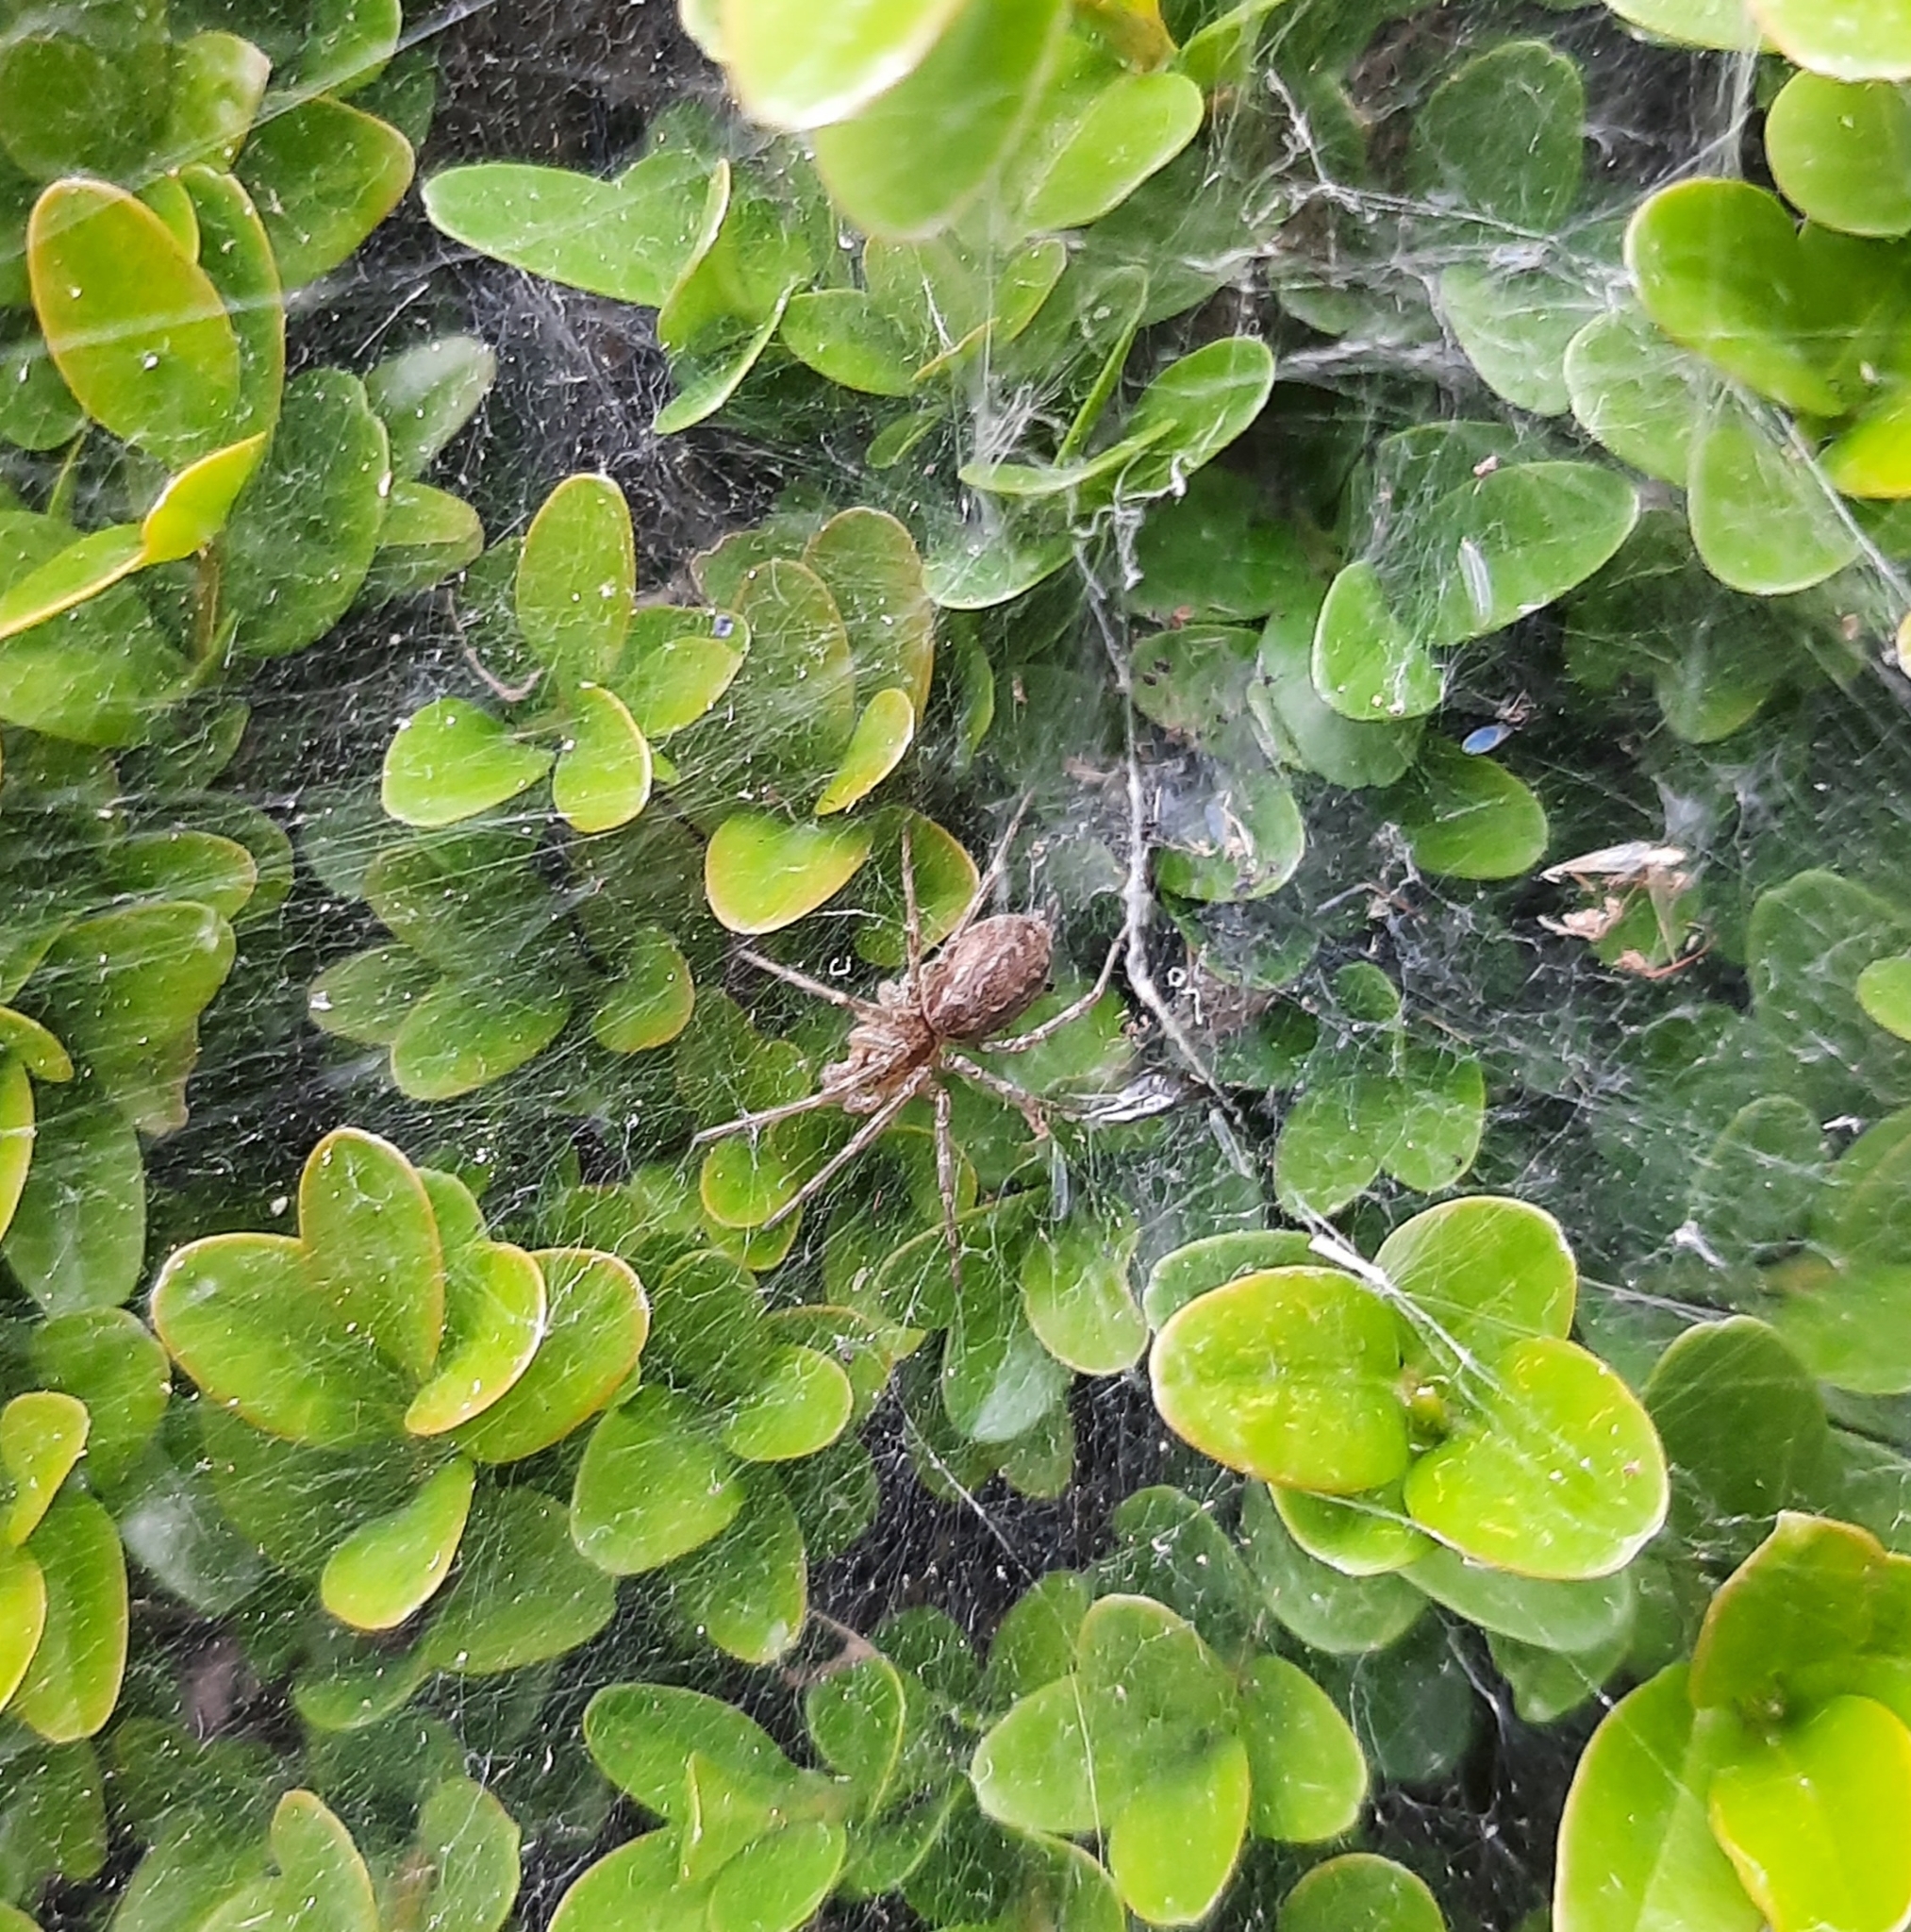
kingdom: Animalia
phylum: Arthropoda
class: Arachnida
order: Araneae
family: Agelenidae
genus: Allagelena
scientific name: Allagelena gracilens
